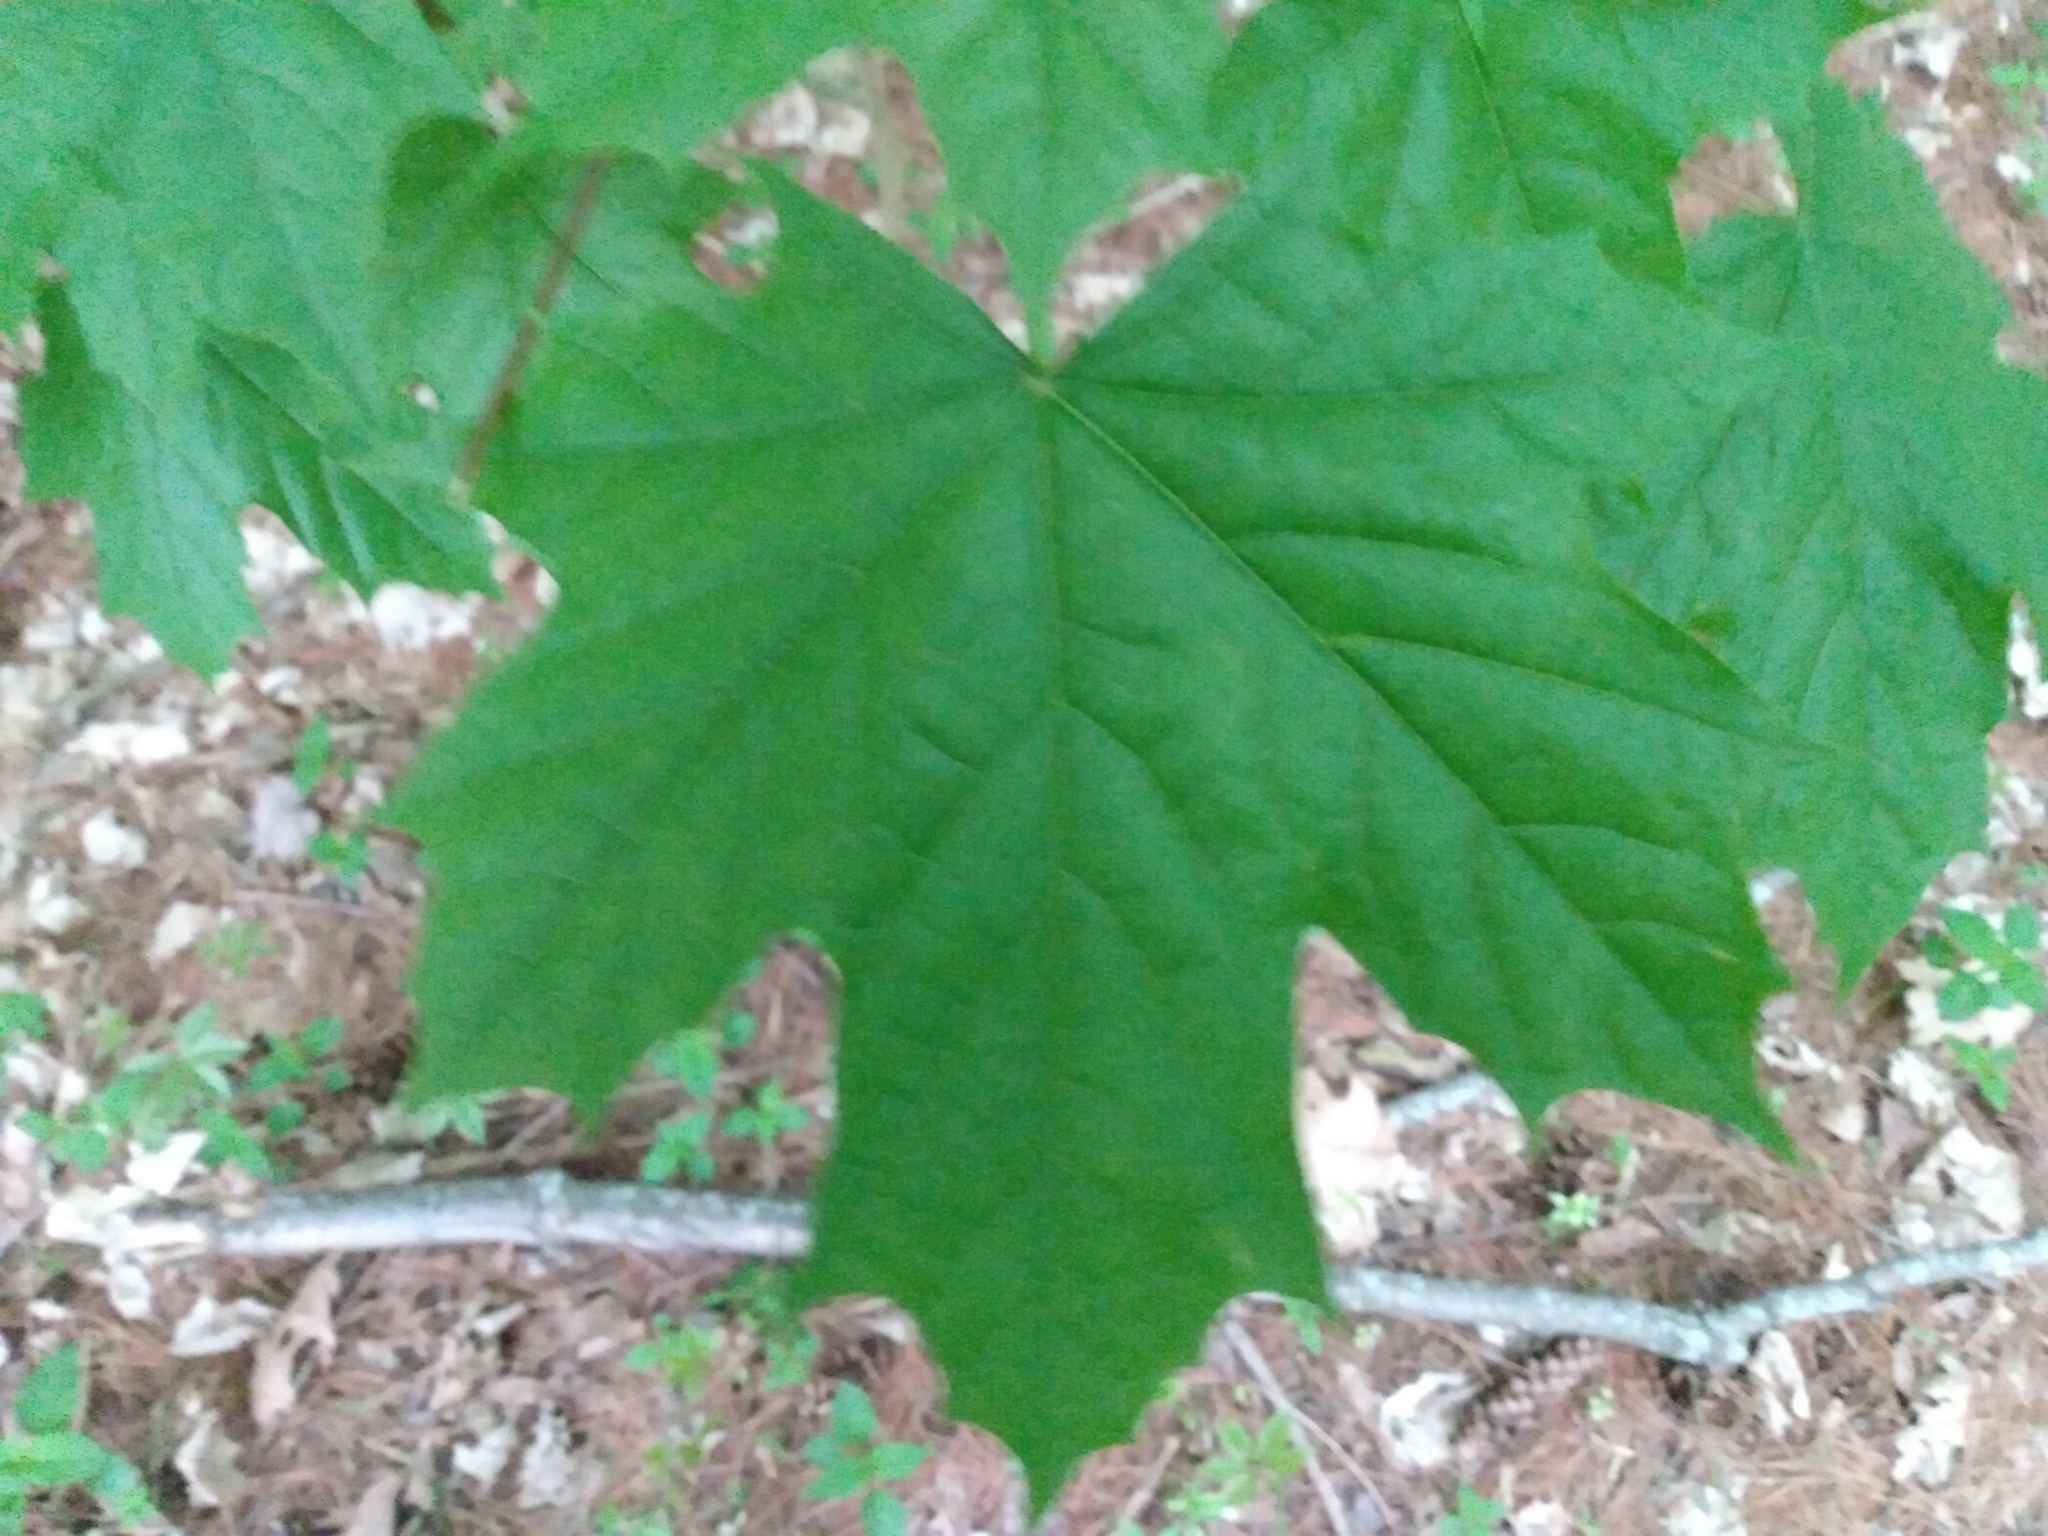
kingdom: Plantae
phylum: Tracheophyta
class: Magnoliopsida
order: Sapindales
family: Sapindaceae
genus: Acer
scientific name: Acer platanoides
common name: Norway maple
